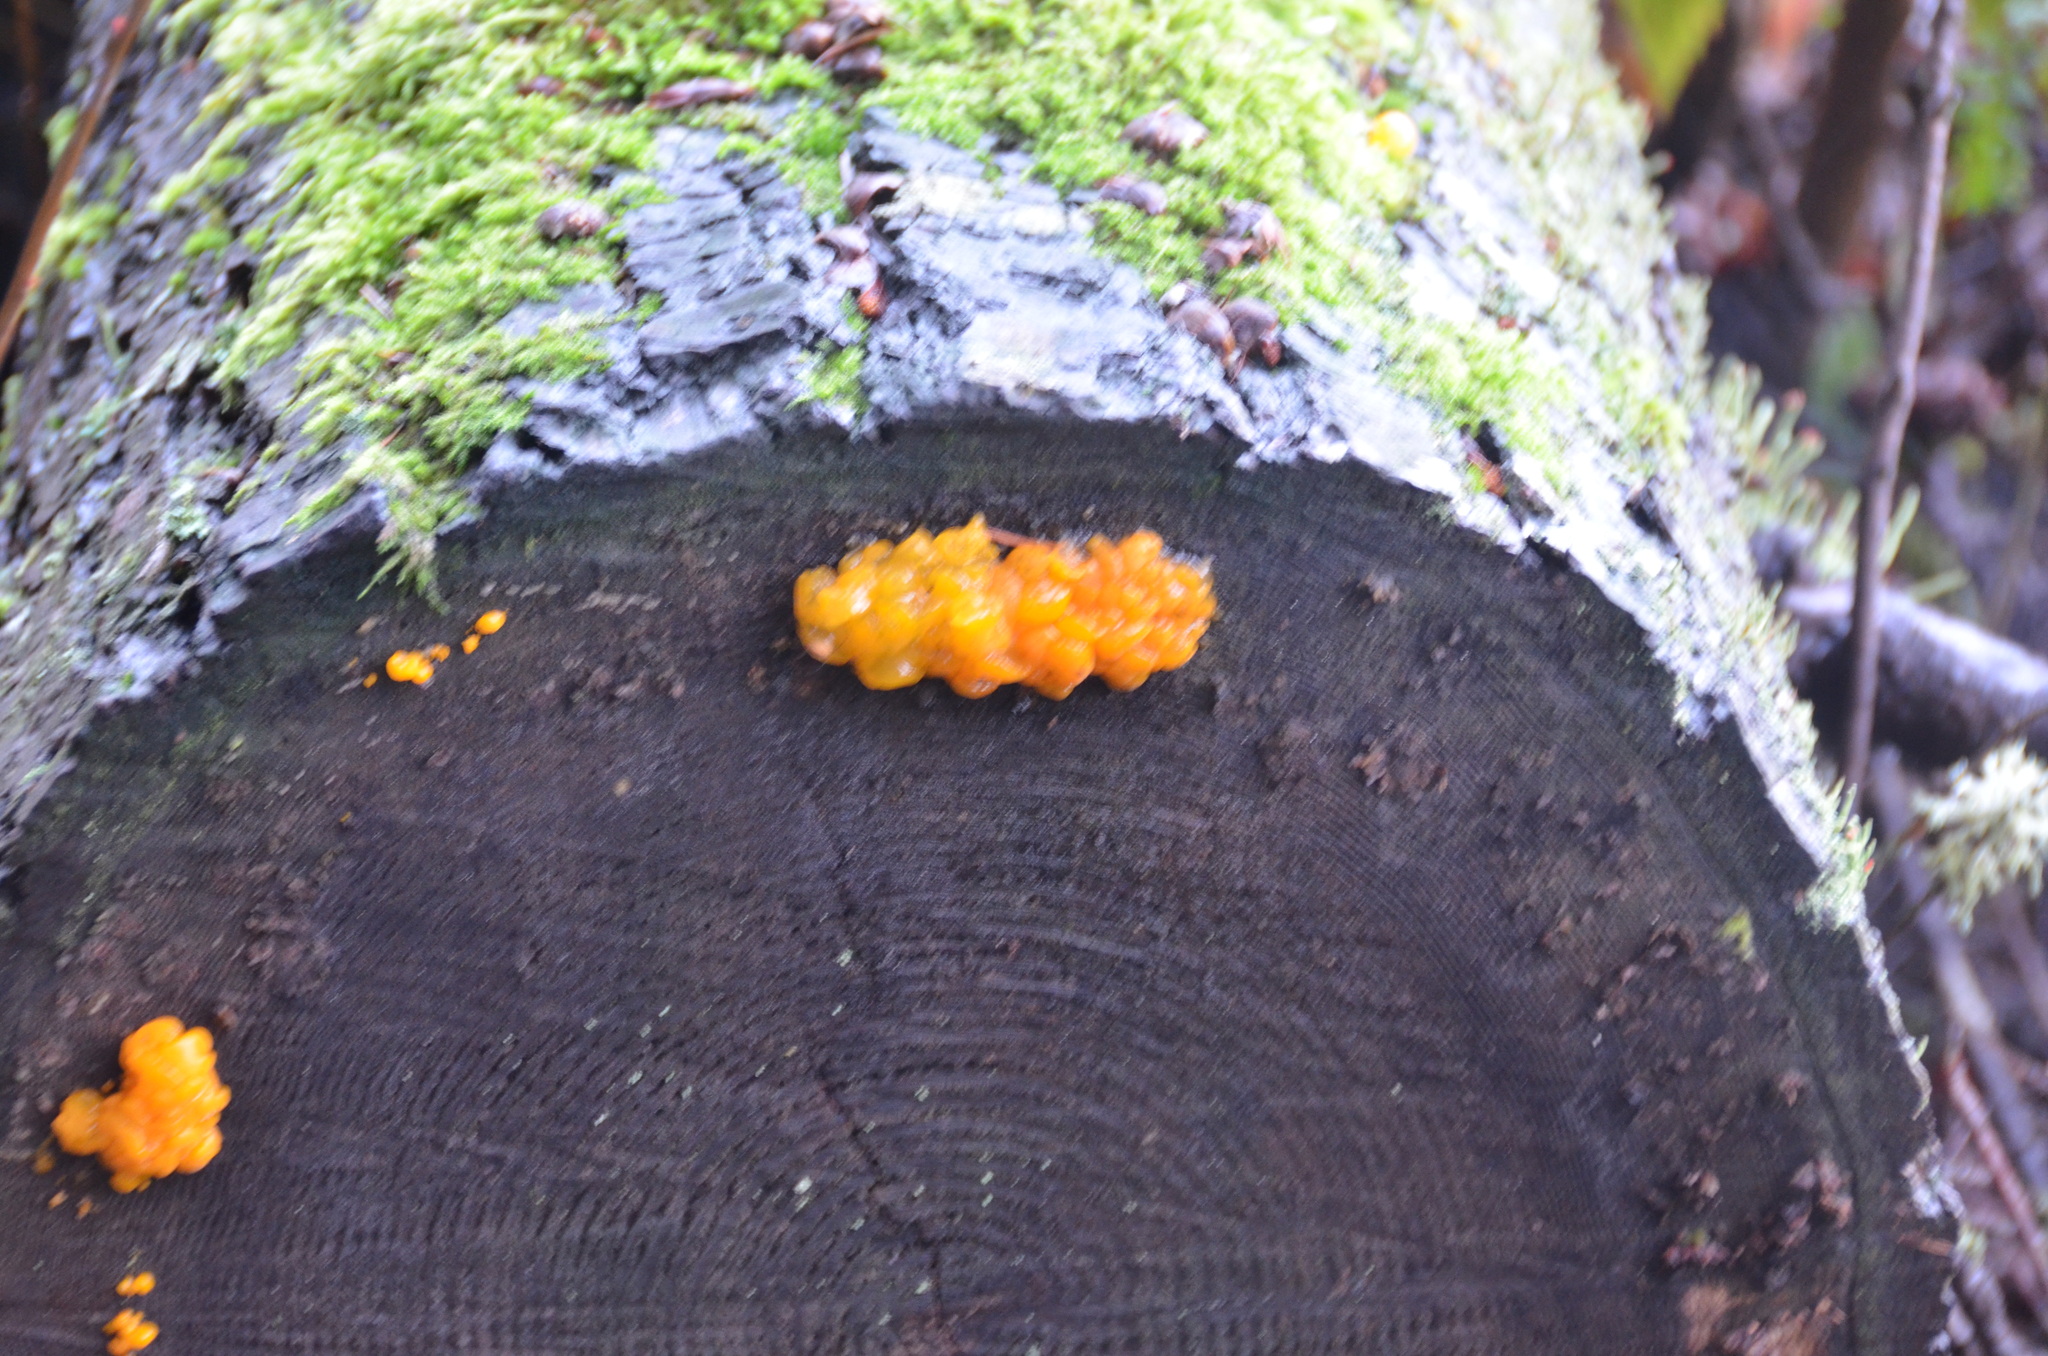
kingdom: Fungi
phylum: Basidiomycota
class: Dacrymycetes
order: Dacrymycetales
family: Dacrymycetaceae
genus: Dacrymyces
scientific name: Dacrymyces chrysospermus
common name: Orange jelly spot
